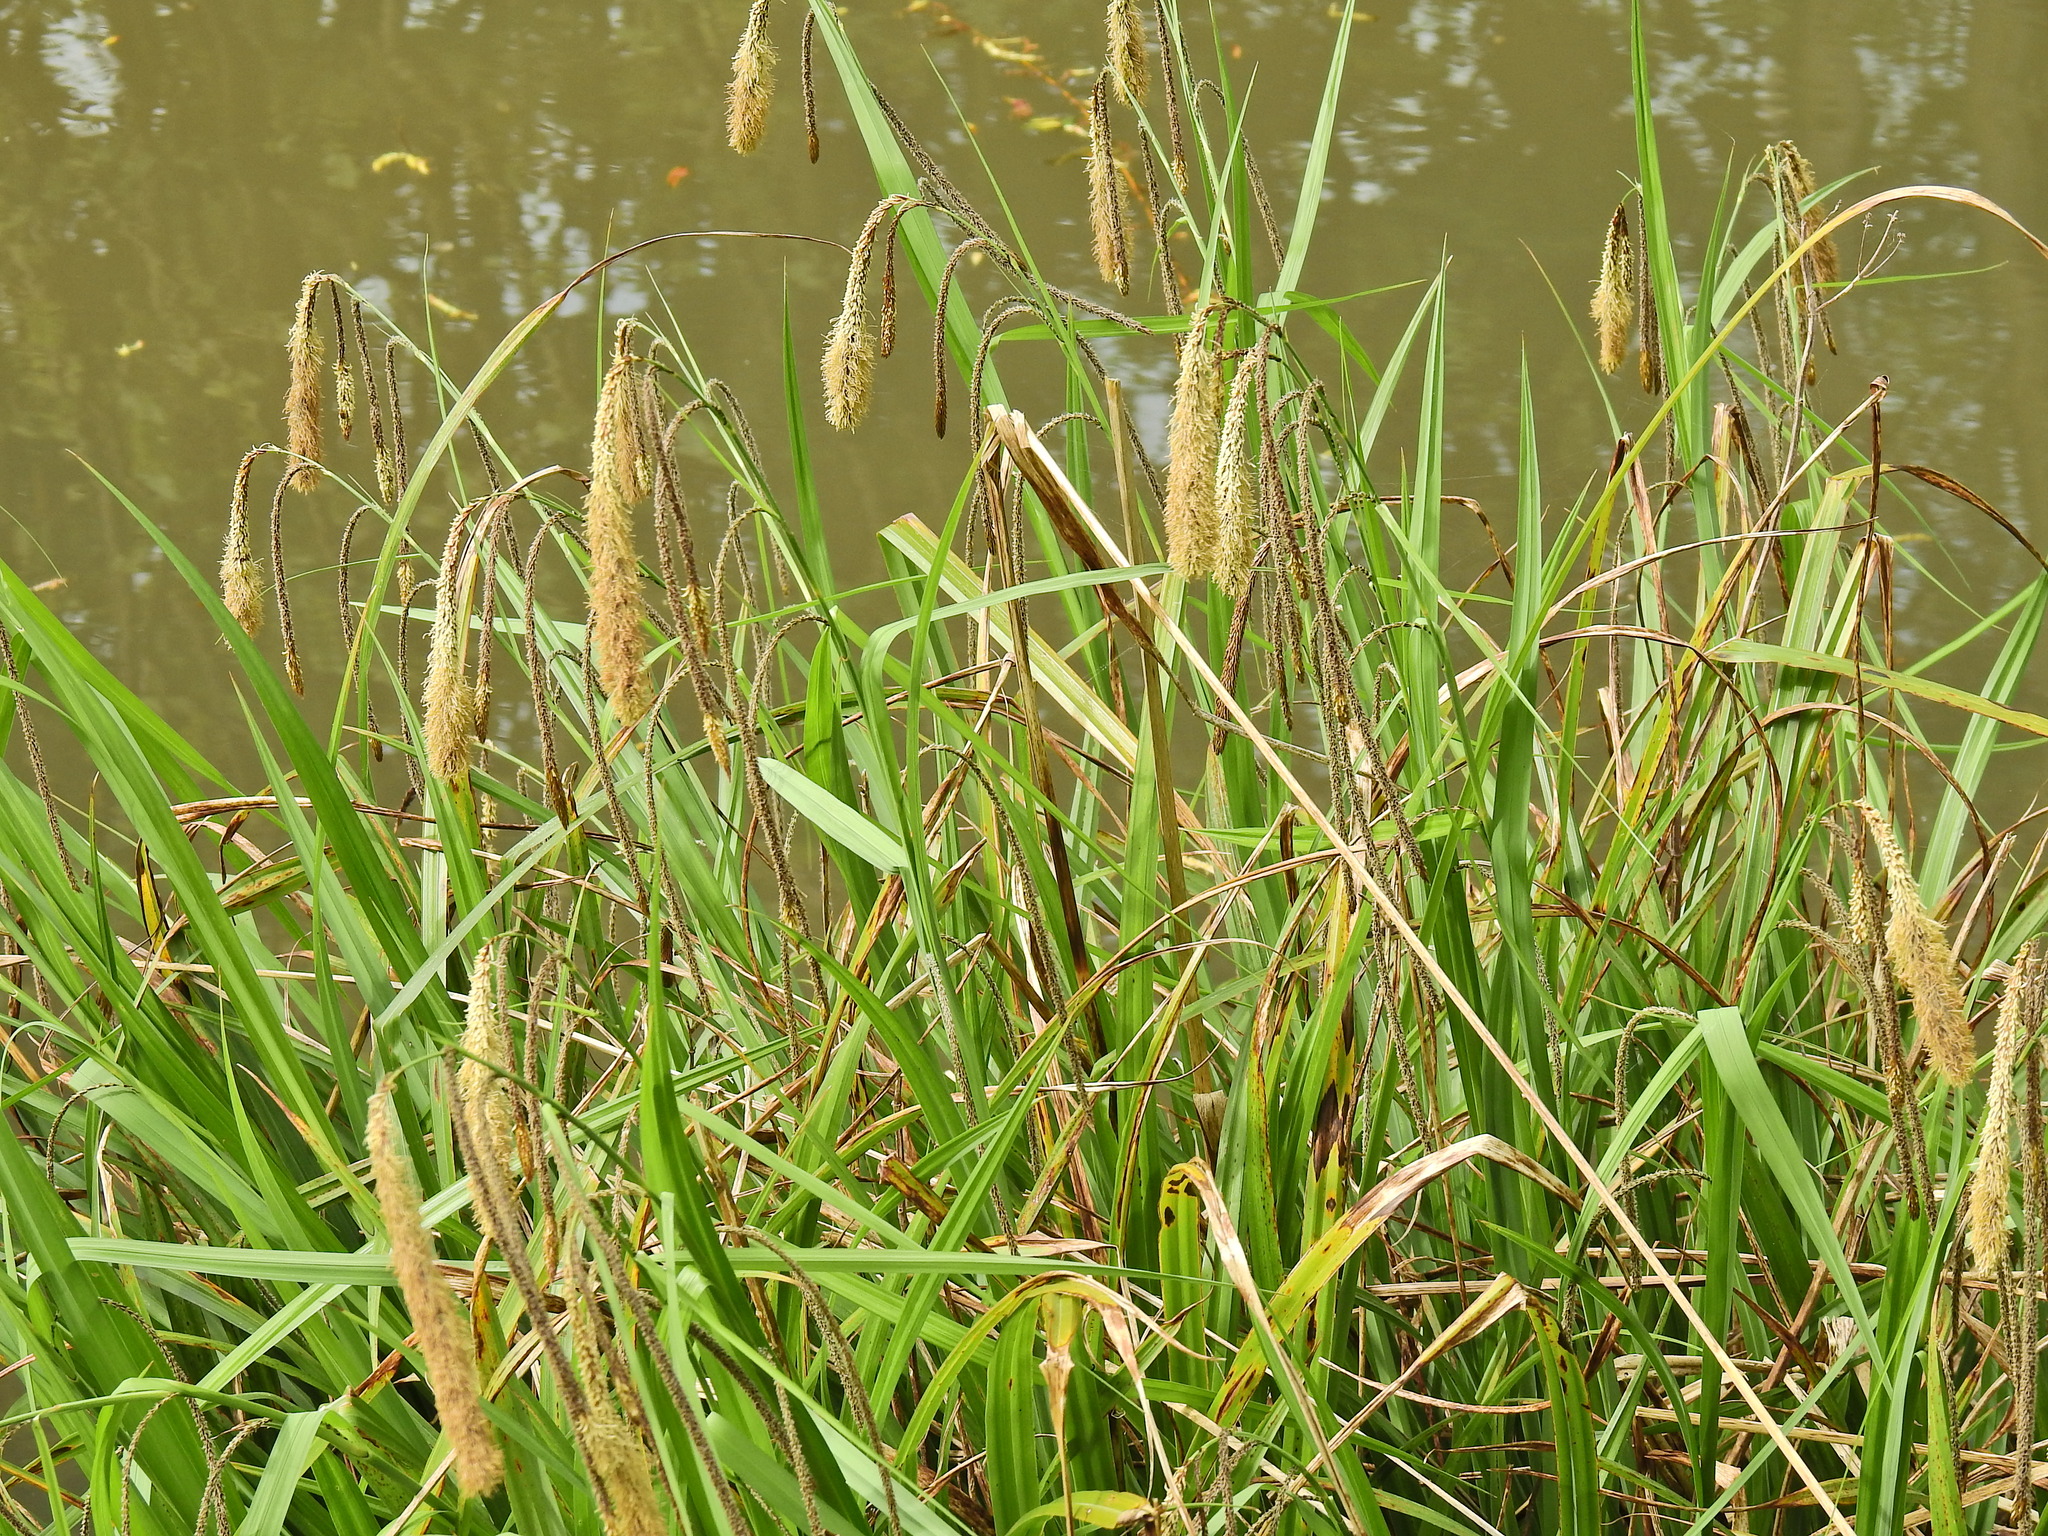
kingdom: Plantae
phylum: Tracheophyta
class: Liliopsida
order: Poales
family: Cyperaceae
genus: Carex
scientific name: Carex pendula
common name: Pendulous sedge
